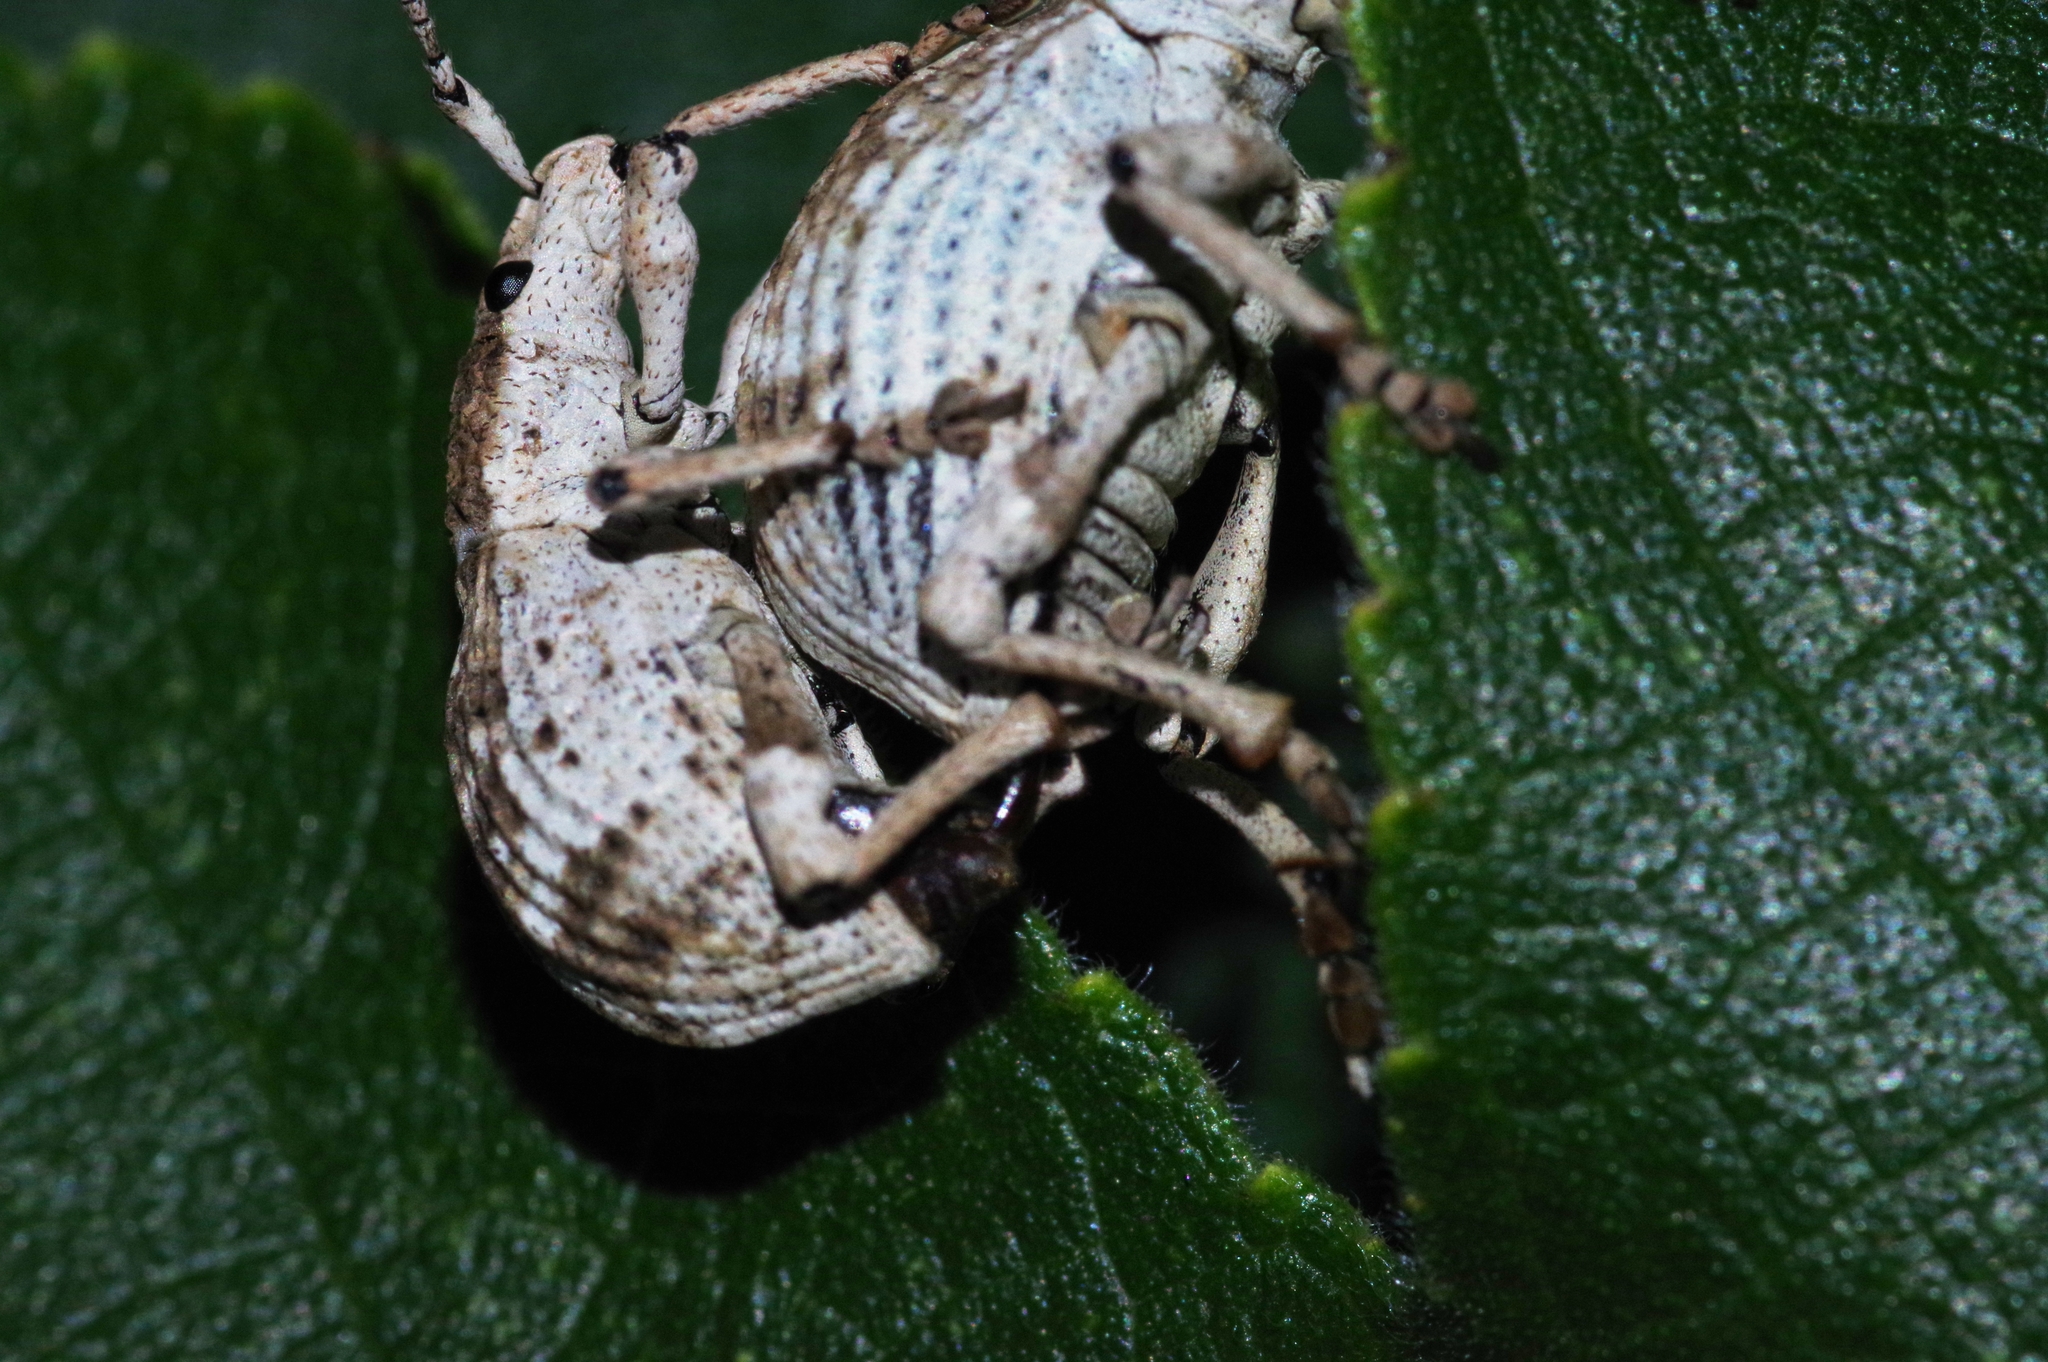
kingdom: Animalia
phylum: Arthropoda
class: Insecta
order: Coleoptera
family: Curculionidae
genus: Episomus
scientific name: Episomus mori
